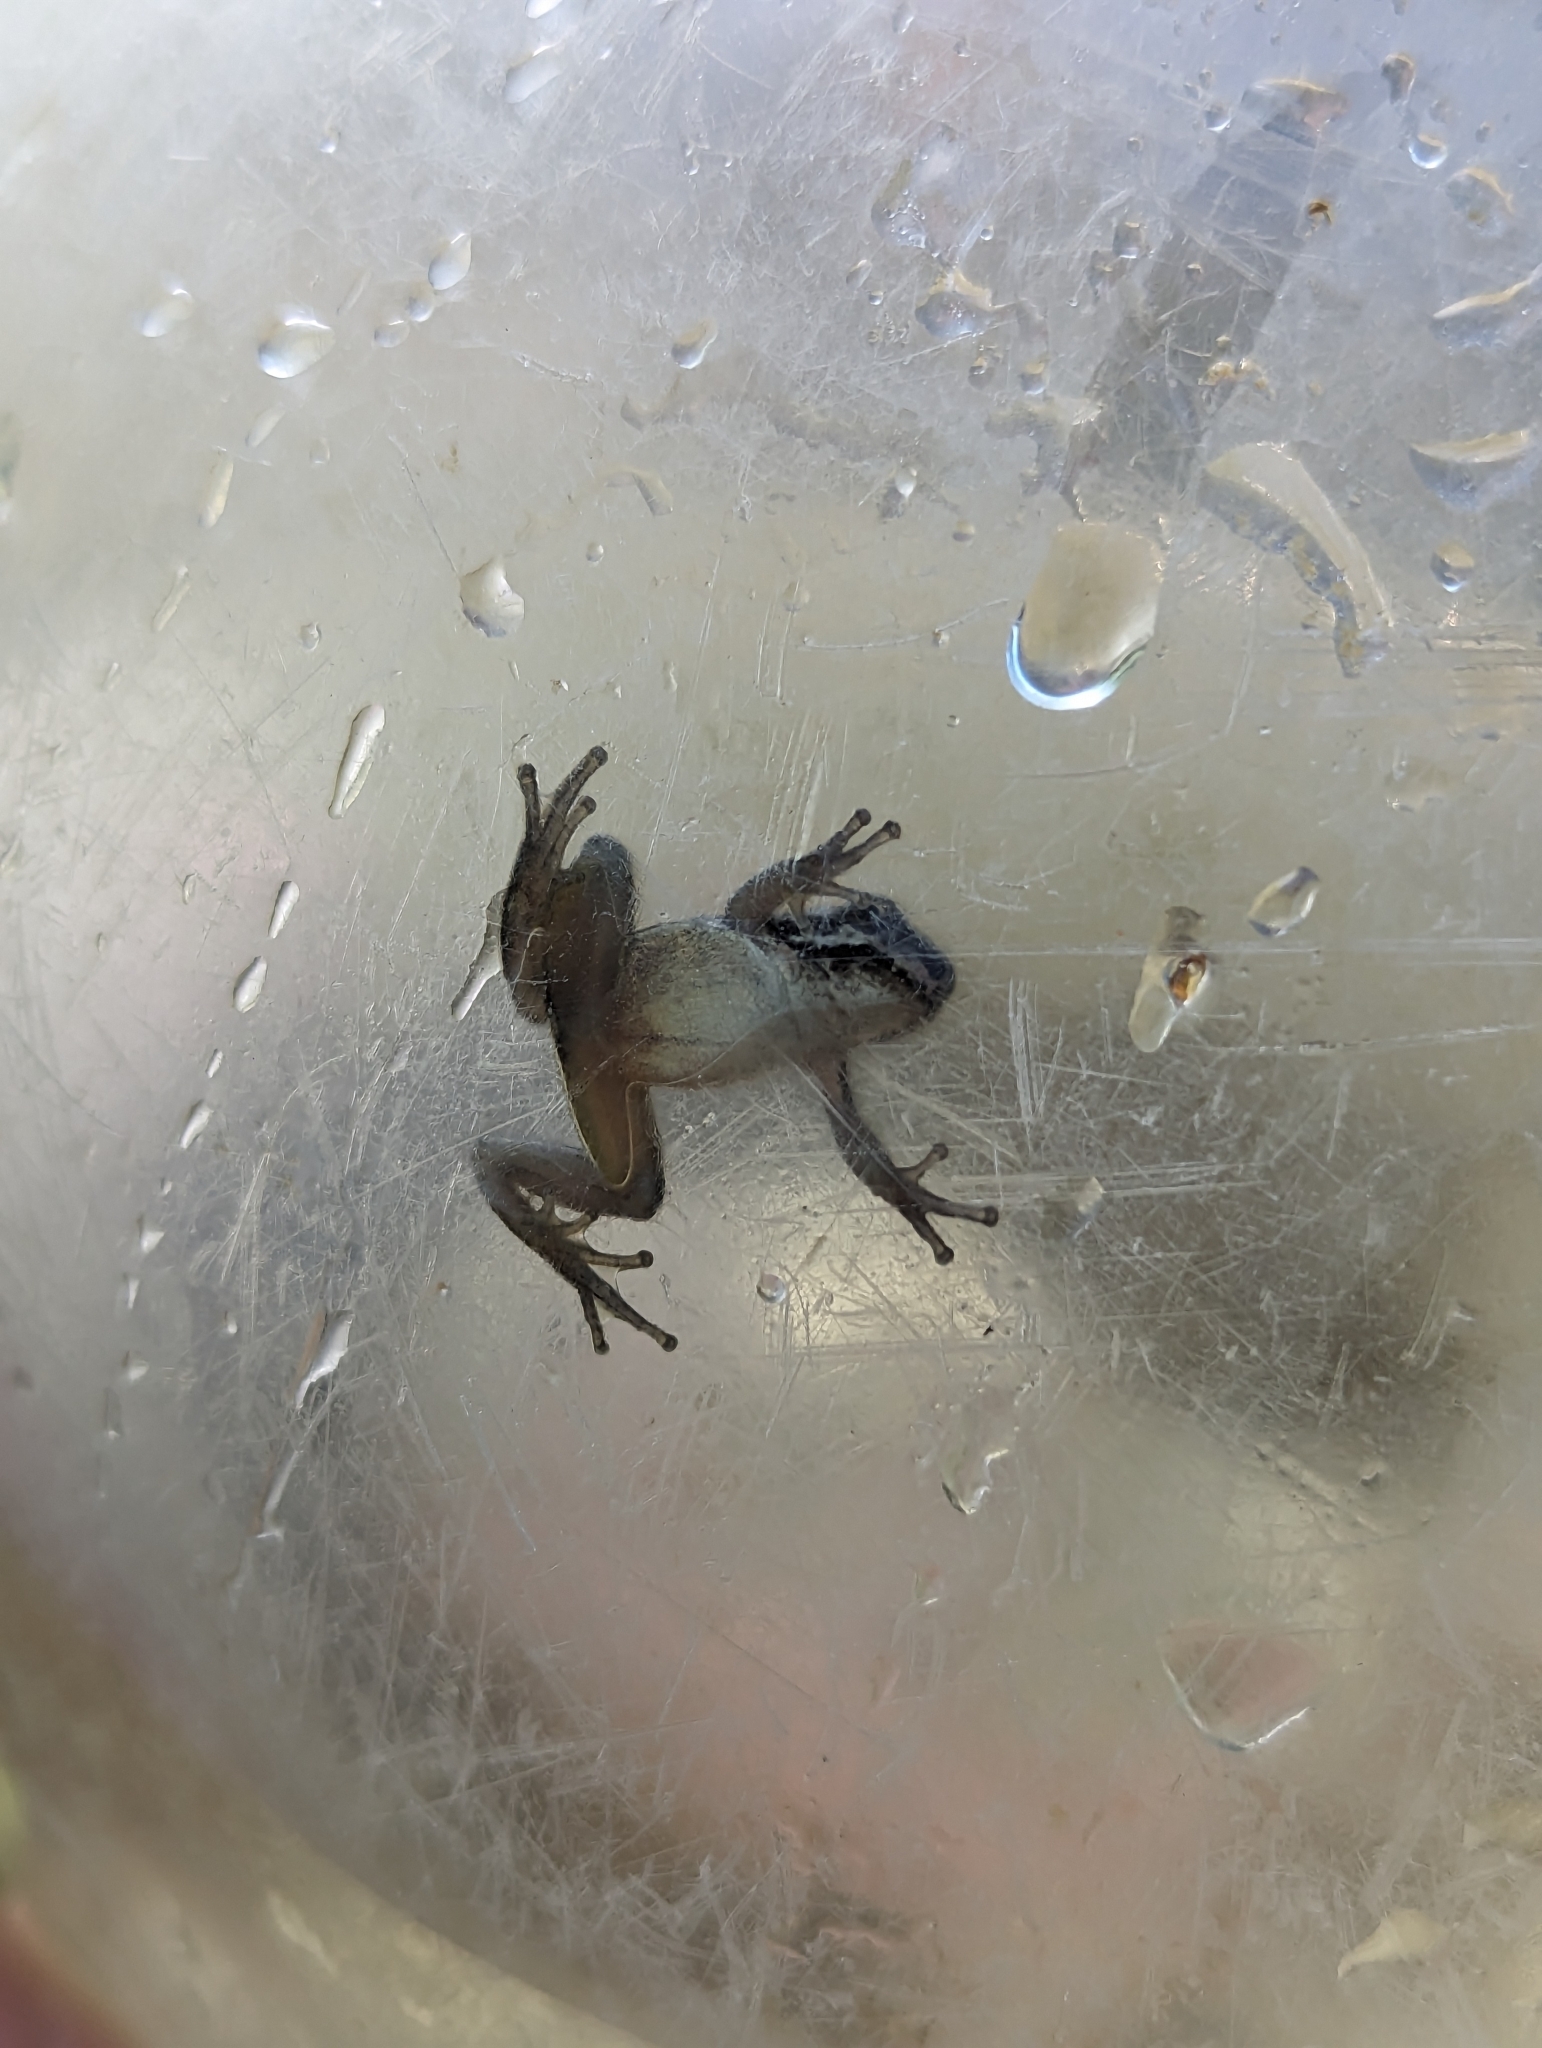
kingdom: Animalia
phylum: Chordata
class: Amphibia
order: Anura
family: Hylidae
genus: Pseudacris
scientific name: Pseudacris regilla
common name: Pacific chorus frog
